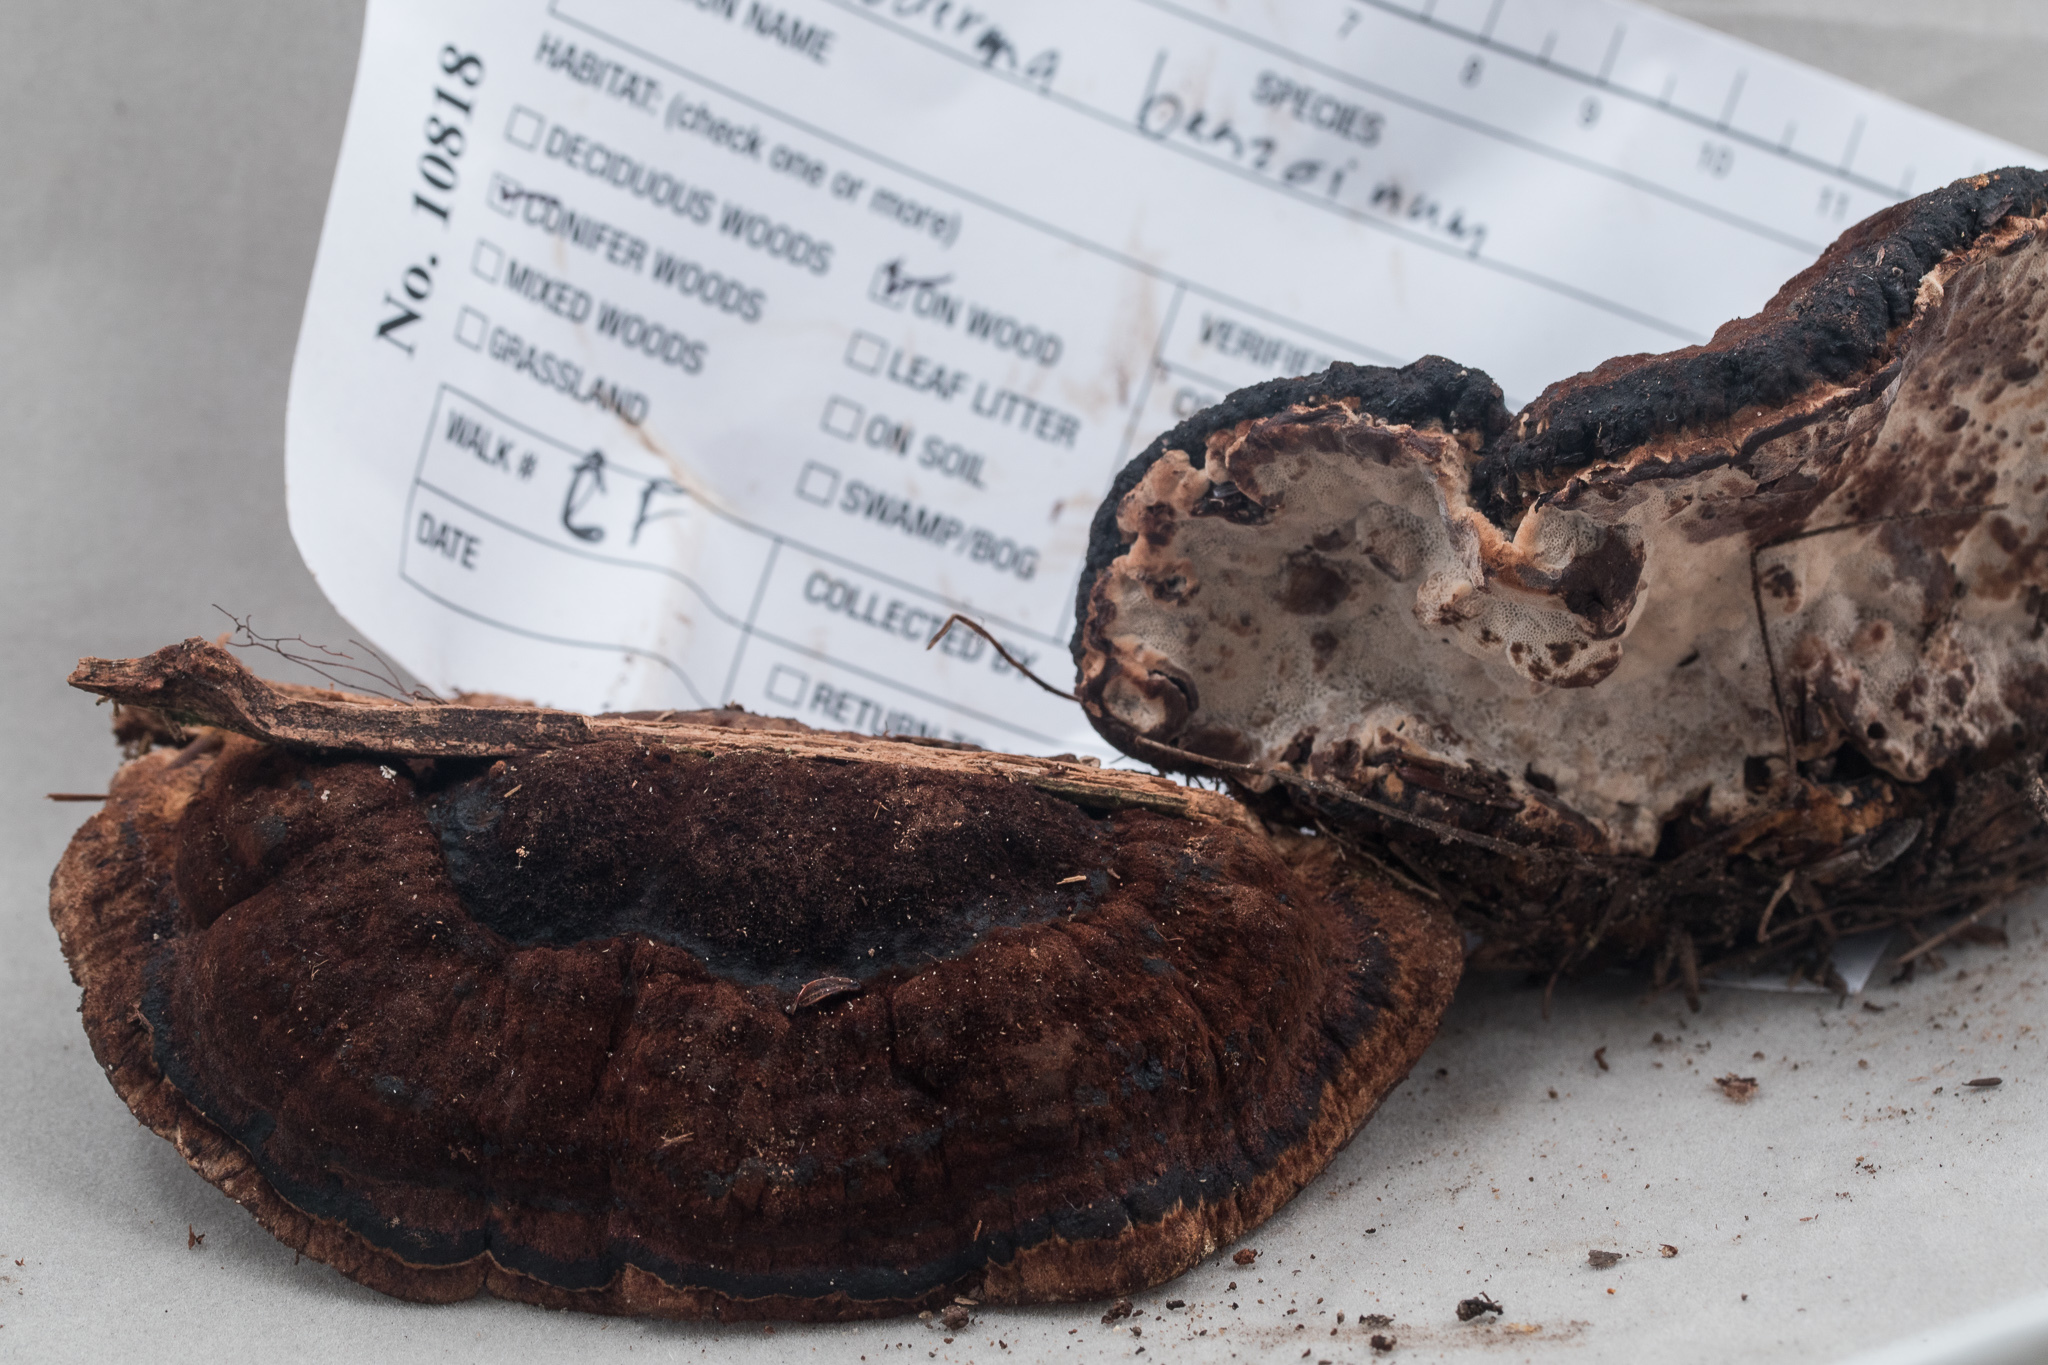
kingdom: Fungi
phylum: Basidiomycota
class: Agaricomycetes
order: Polyporales
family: Ischnodermataceae
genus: Ischnoderma
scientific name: Ischnoderma benzoinum
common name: Benzoin bracket
